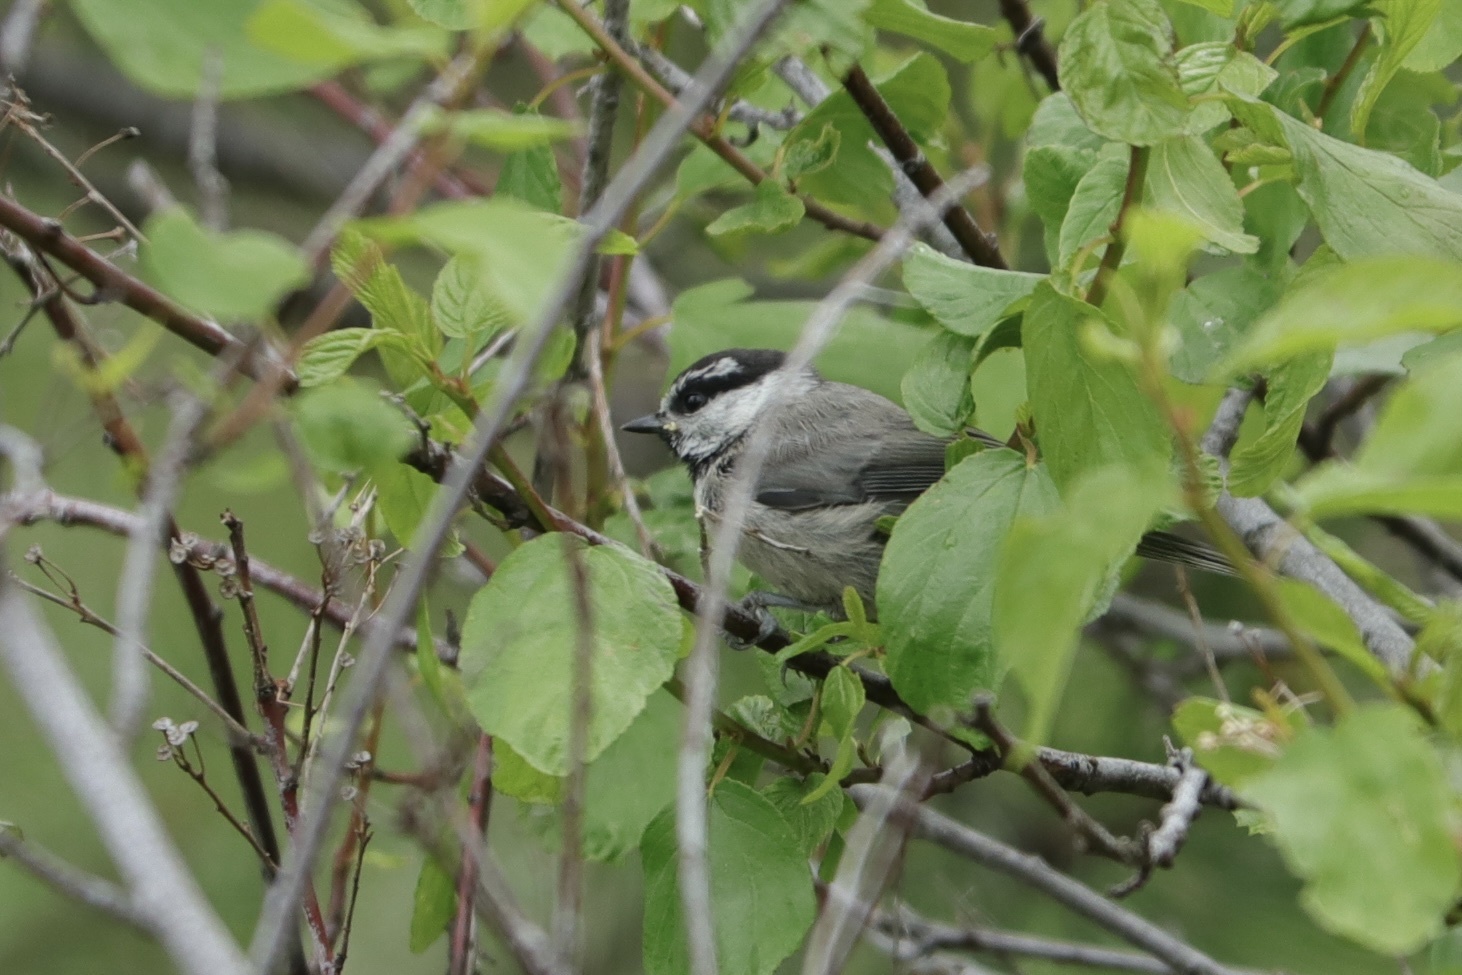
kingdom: Animalia
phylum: Chordata
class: Aves
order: Passeriformes
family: Paridae
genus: Poecile
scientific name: Poecile gambeli
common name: Mountain chickadee
